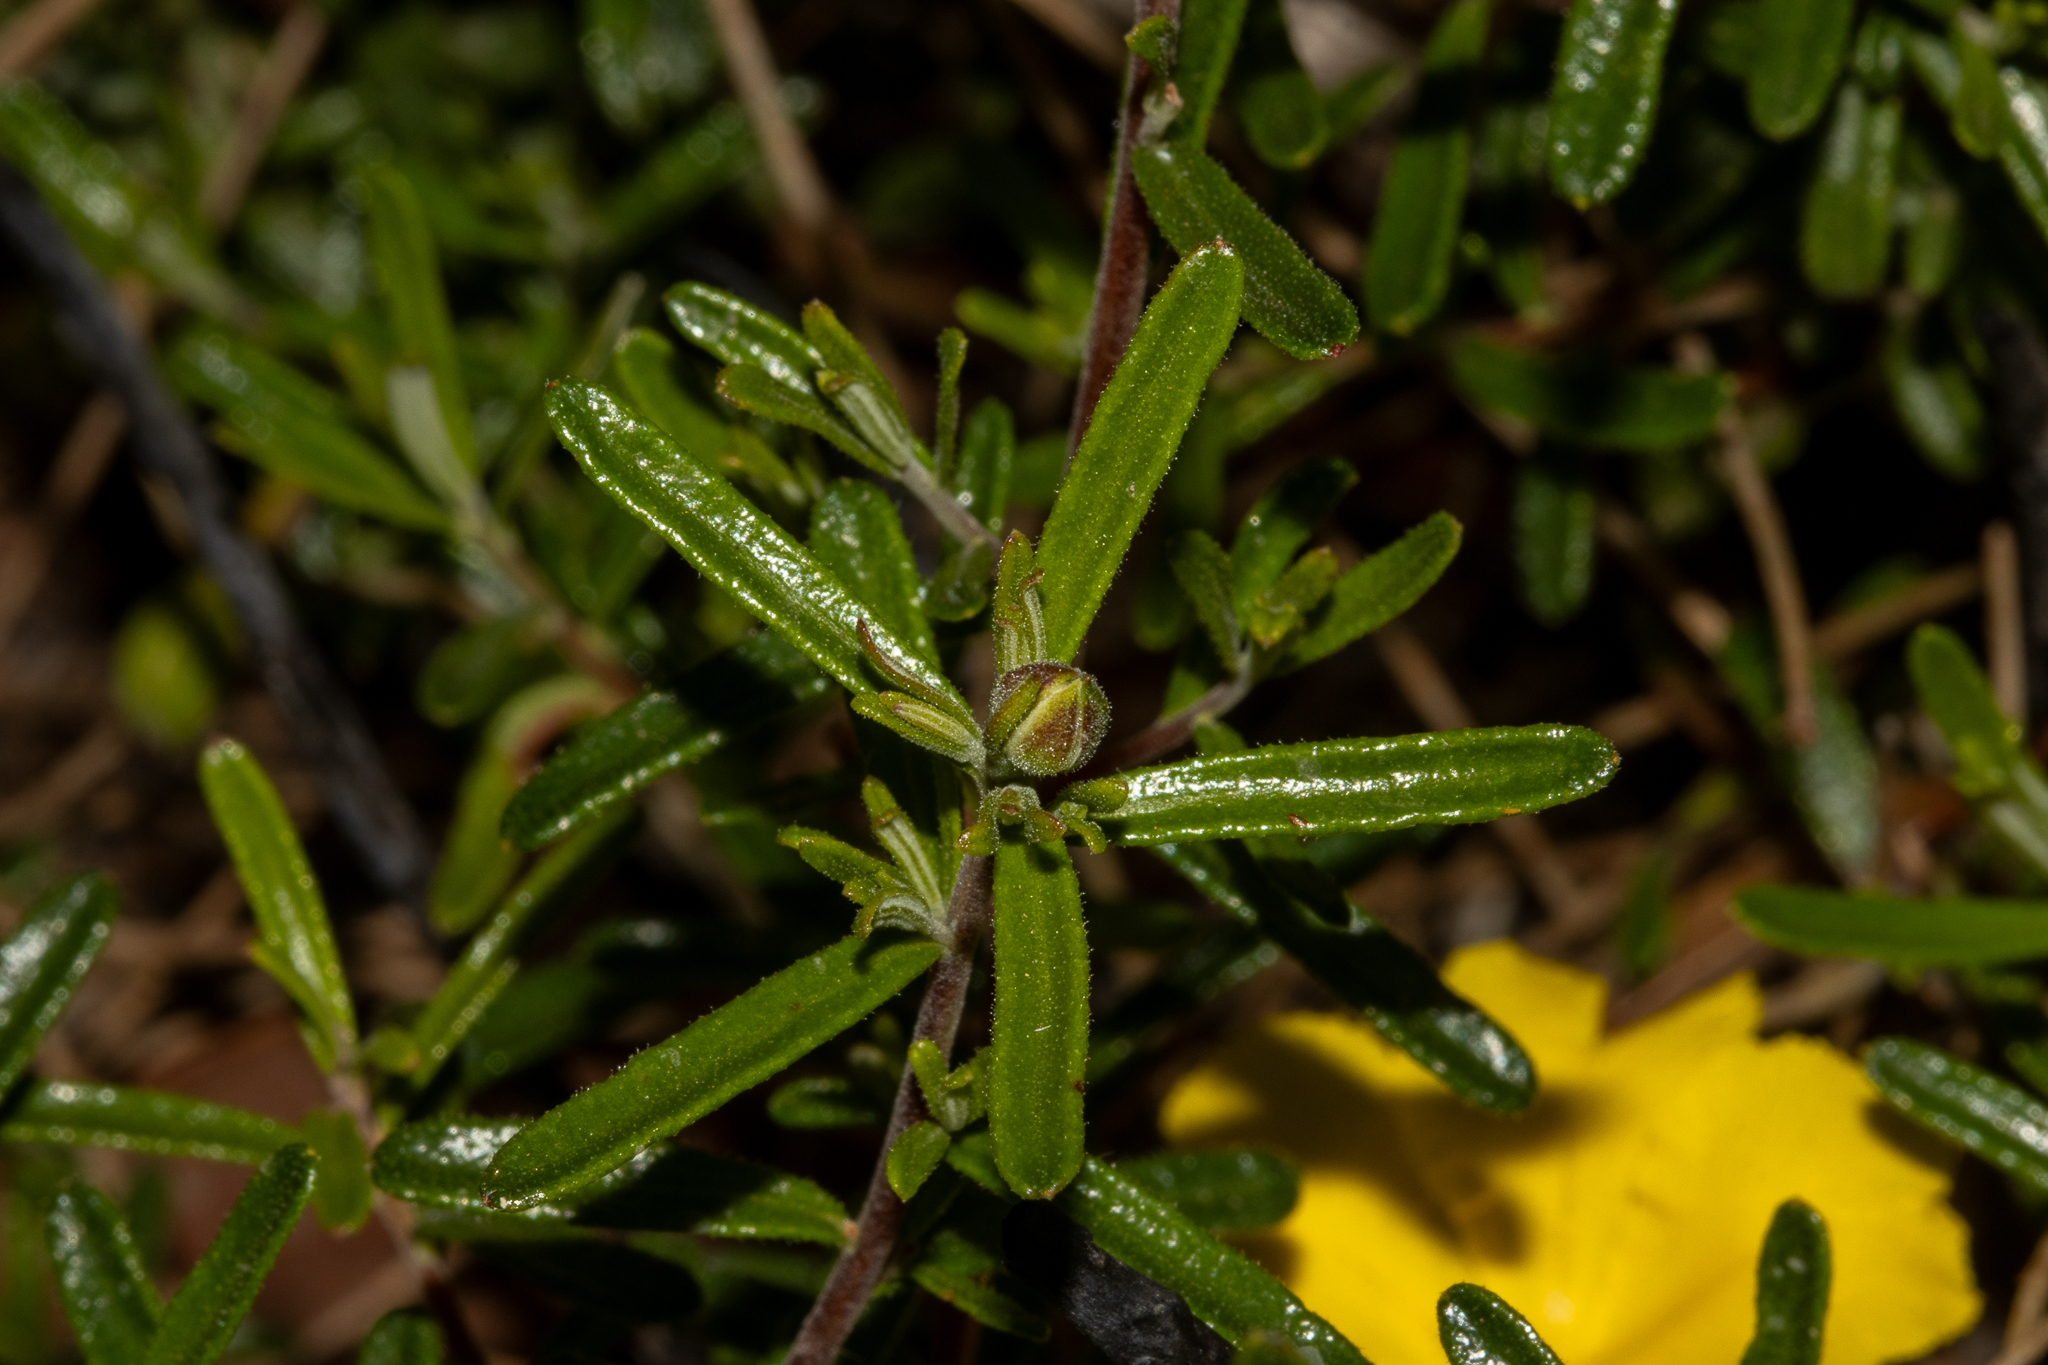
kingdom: Plantae
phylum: Tracheophyta
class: Magnoliopsida
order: Dilleniales
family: Dilleniaceae
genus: Hibbertia
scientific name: Hibbertia hypericoides
